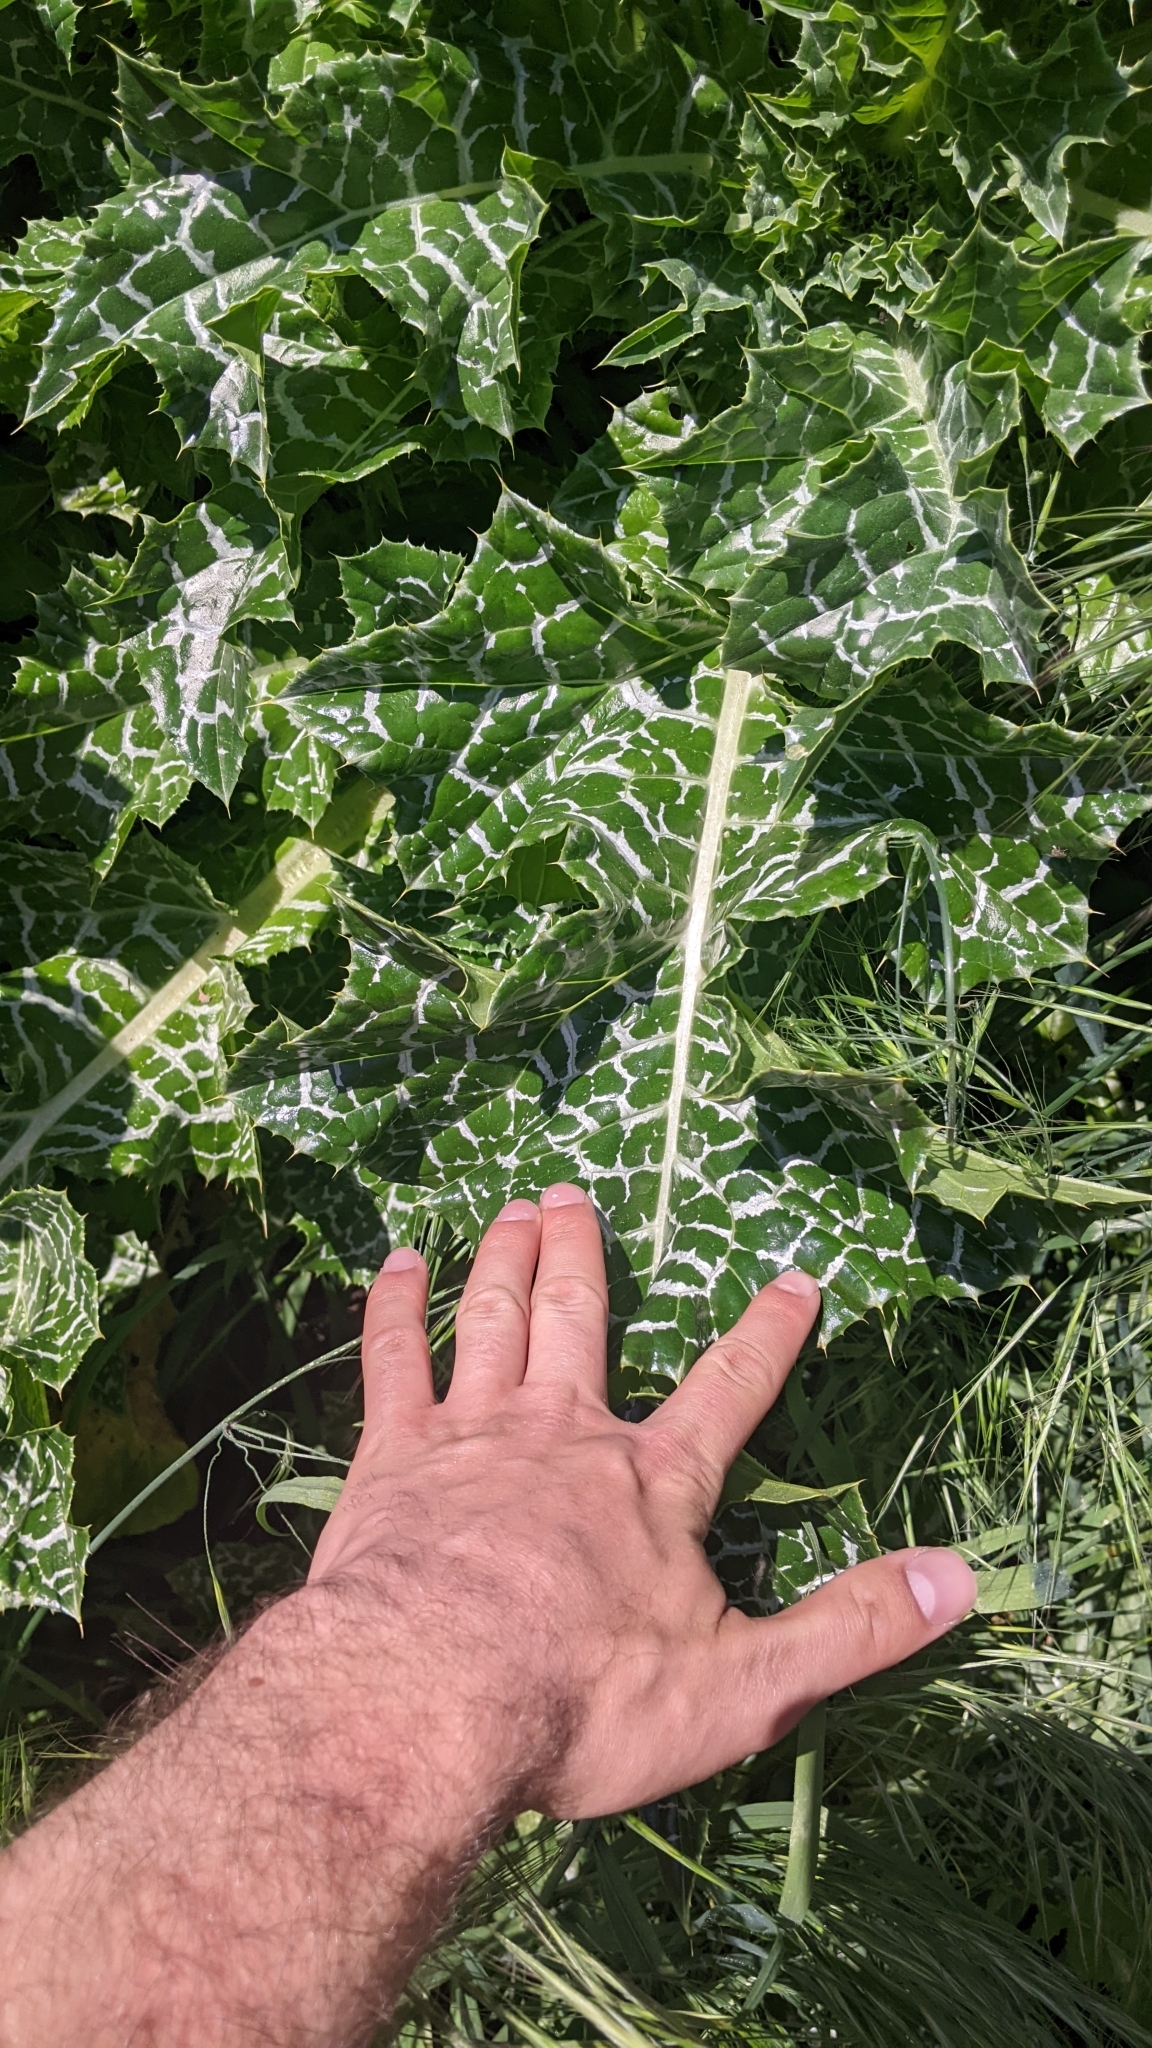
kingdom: Plantae
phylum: Tracheophyta
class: Magnoliopsida
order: Asterales
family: Asteraceae
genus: Silybum
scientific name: Silybum marianum
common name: Milk thistle
